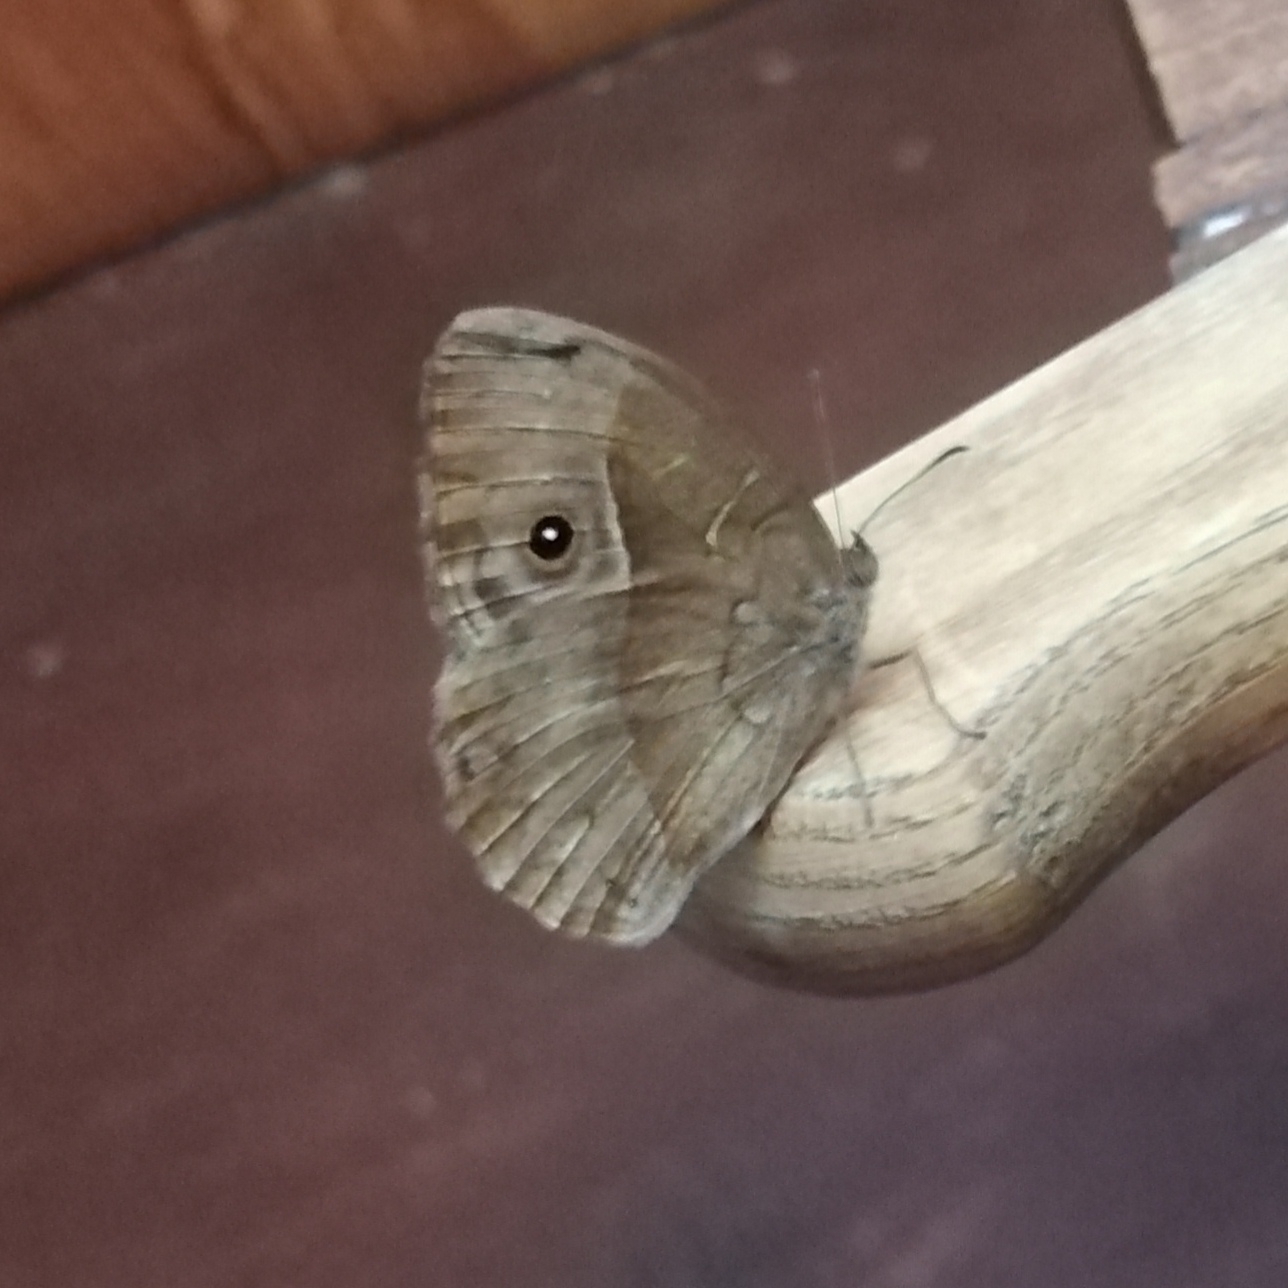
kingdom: Animalia
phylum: Arthropoda
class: Insecta
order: Lepidoptera
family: Nymphalidae
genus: Mycalesis
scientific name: Mycalesis rhacotis
